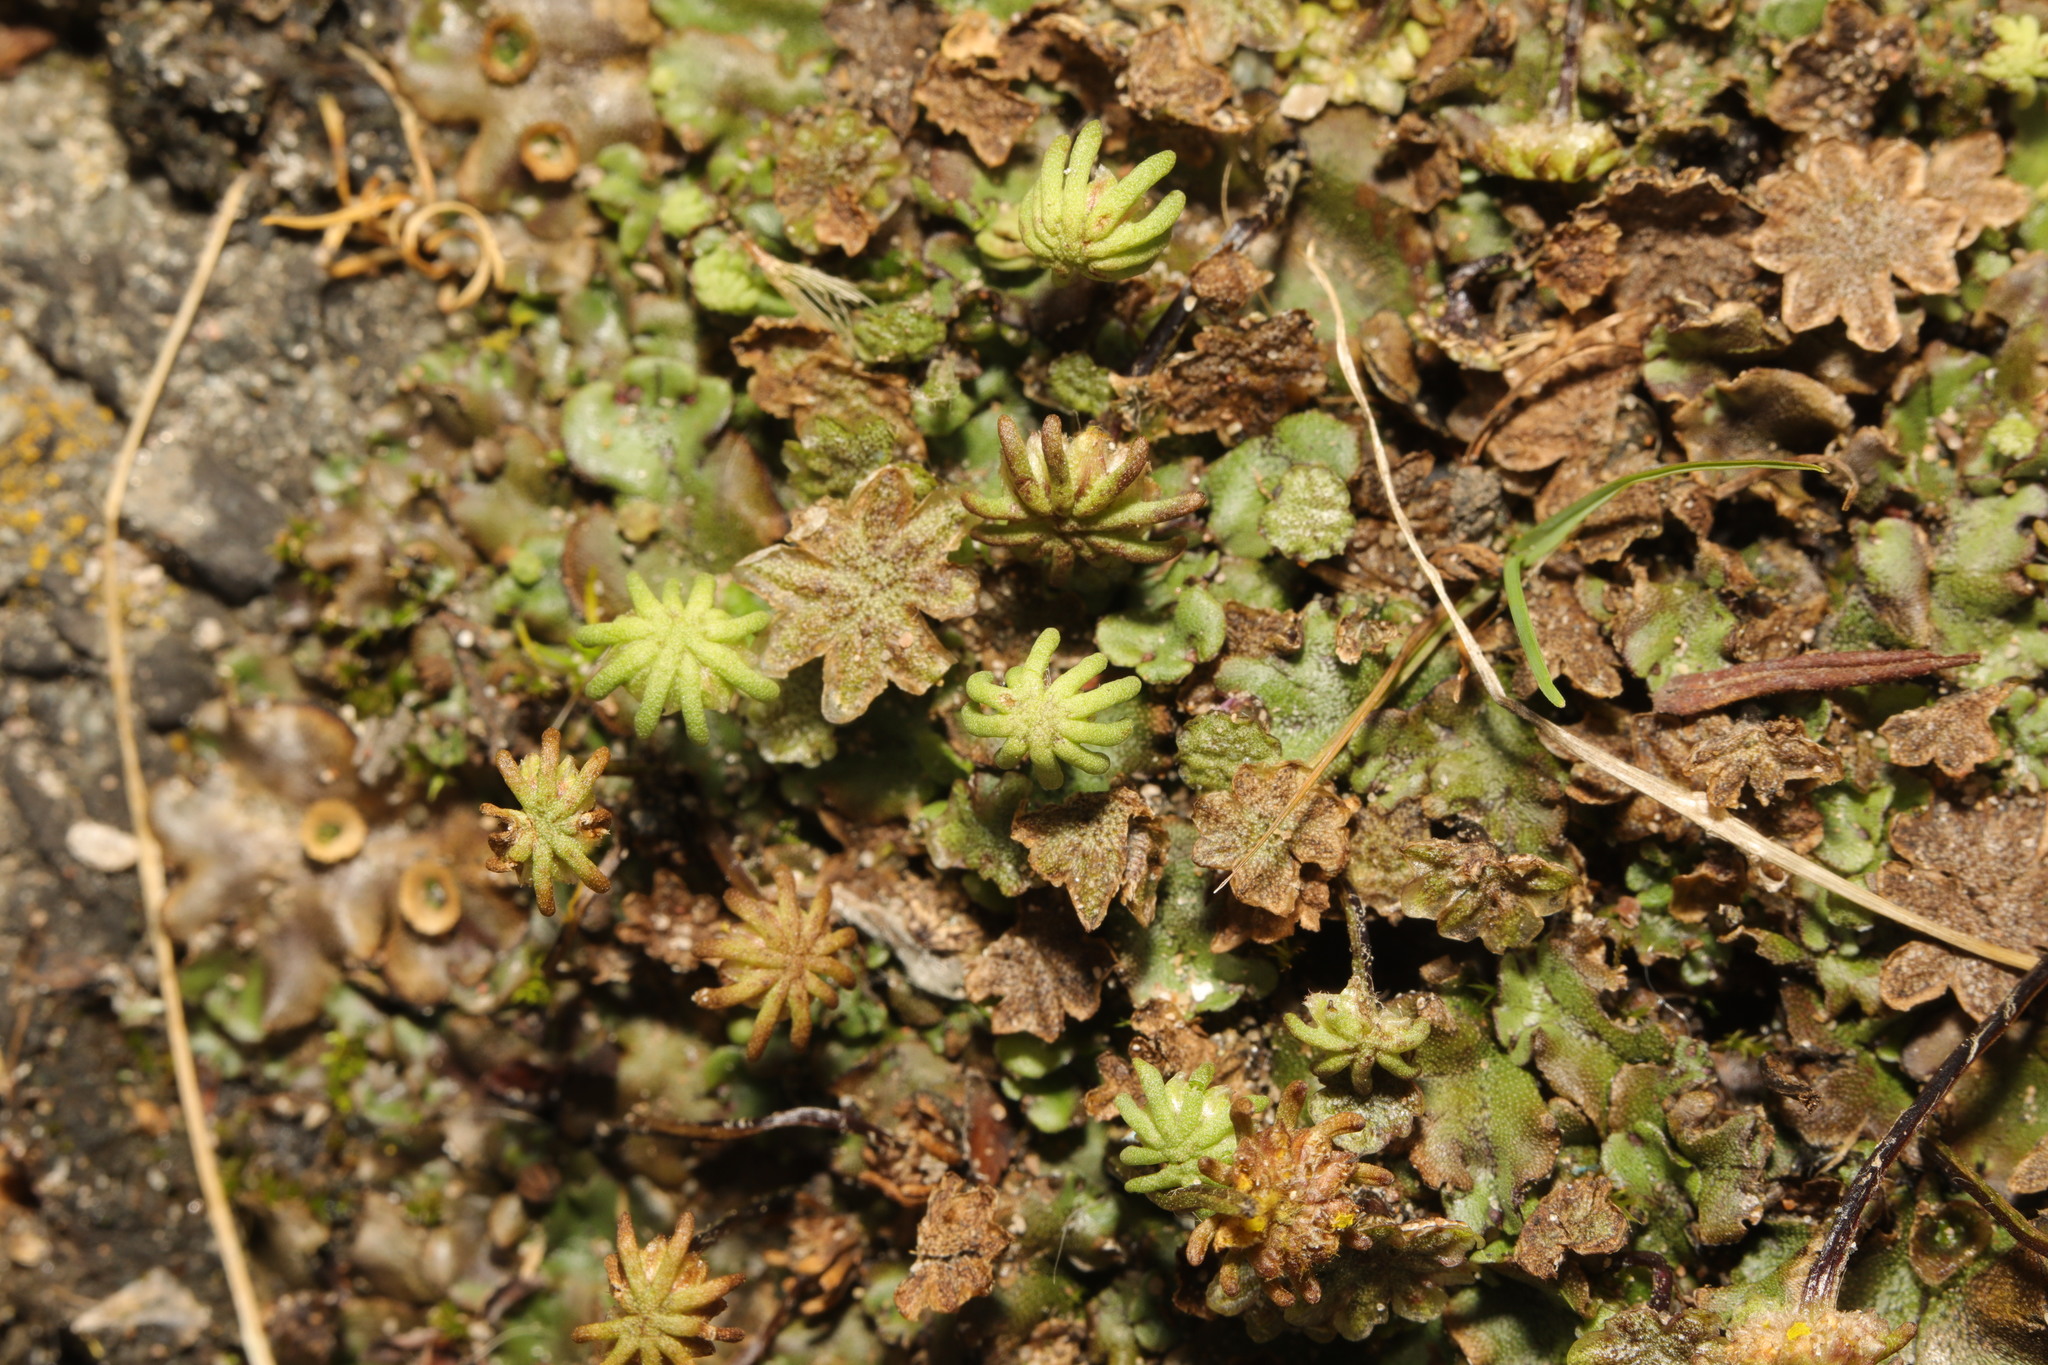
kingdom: Plantae
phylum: Marchantiophyta
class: Marchantiopsida
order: Marchantiales
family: Marchantiaceae
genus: Marchantia
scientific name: Marchantia polymorpha
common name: Common liverwort
